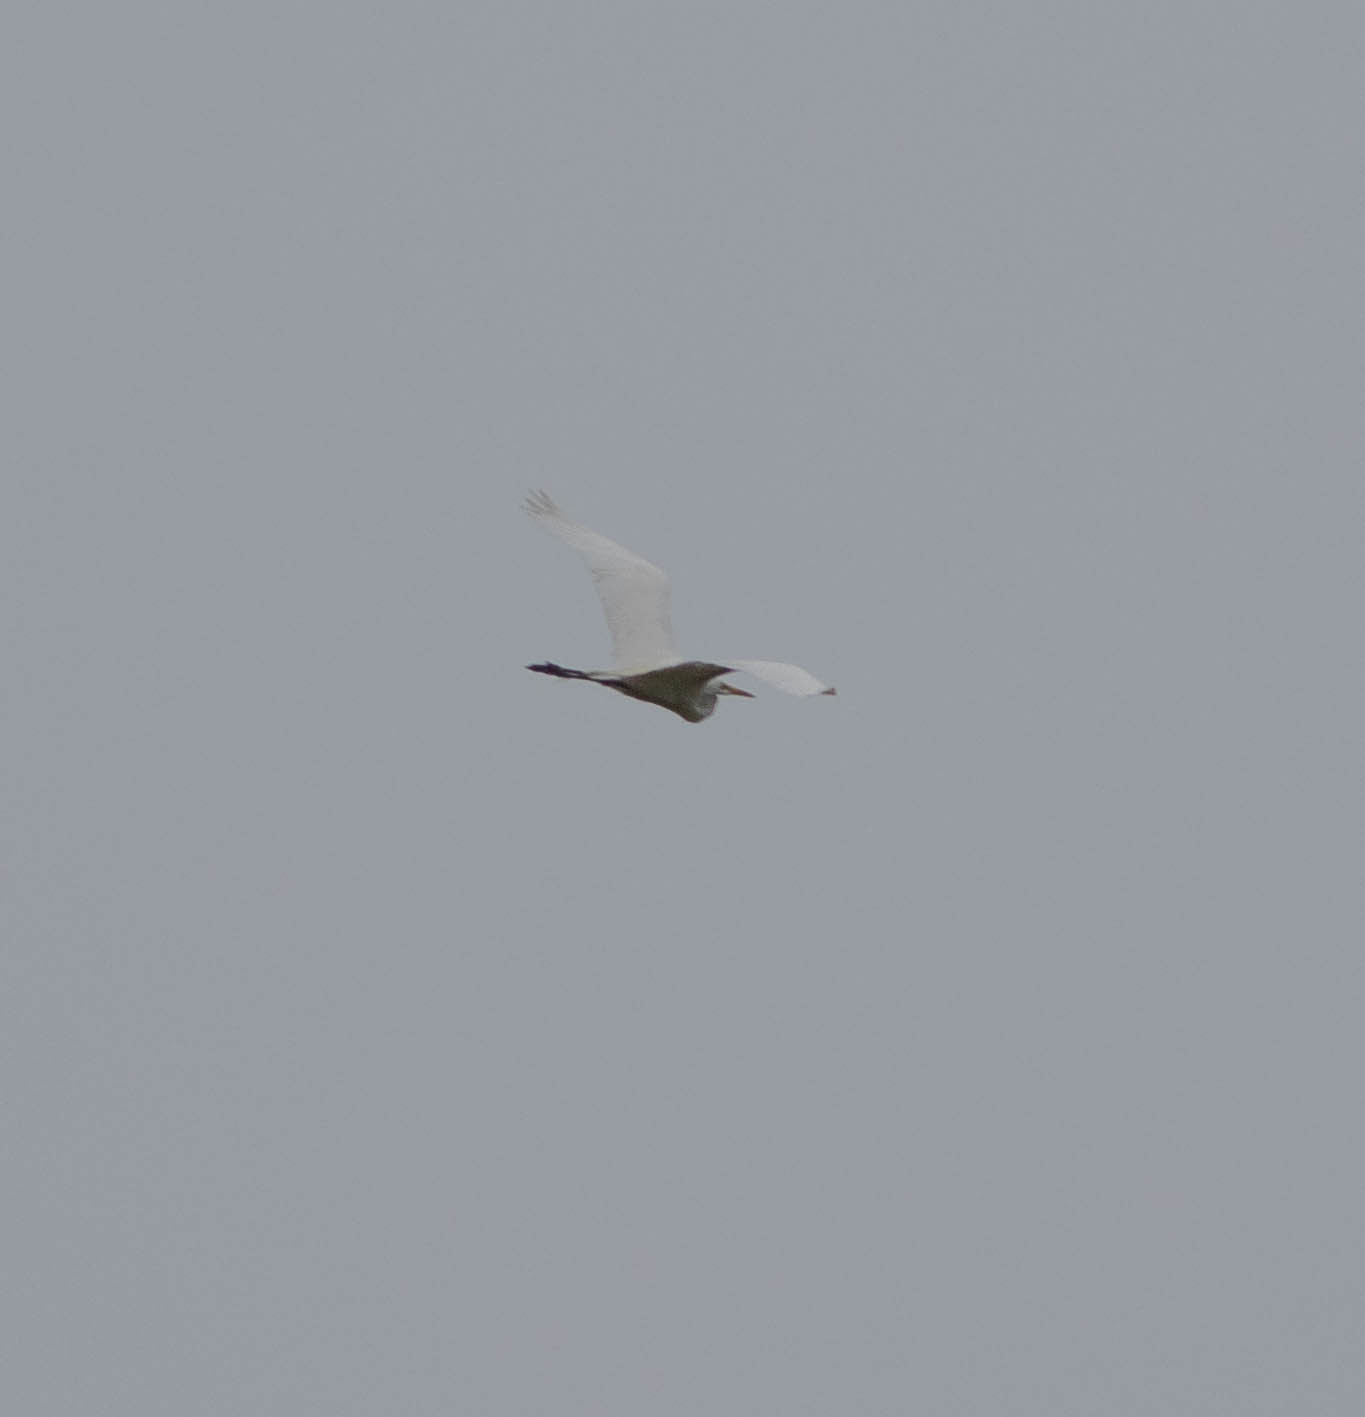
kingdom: Animalia
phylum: Chordata
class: Aves
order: Pelecaniformes
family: Ardeidae
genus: Ardea
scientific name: Ardea alba
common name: Great egret
